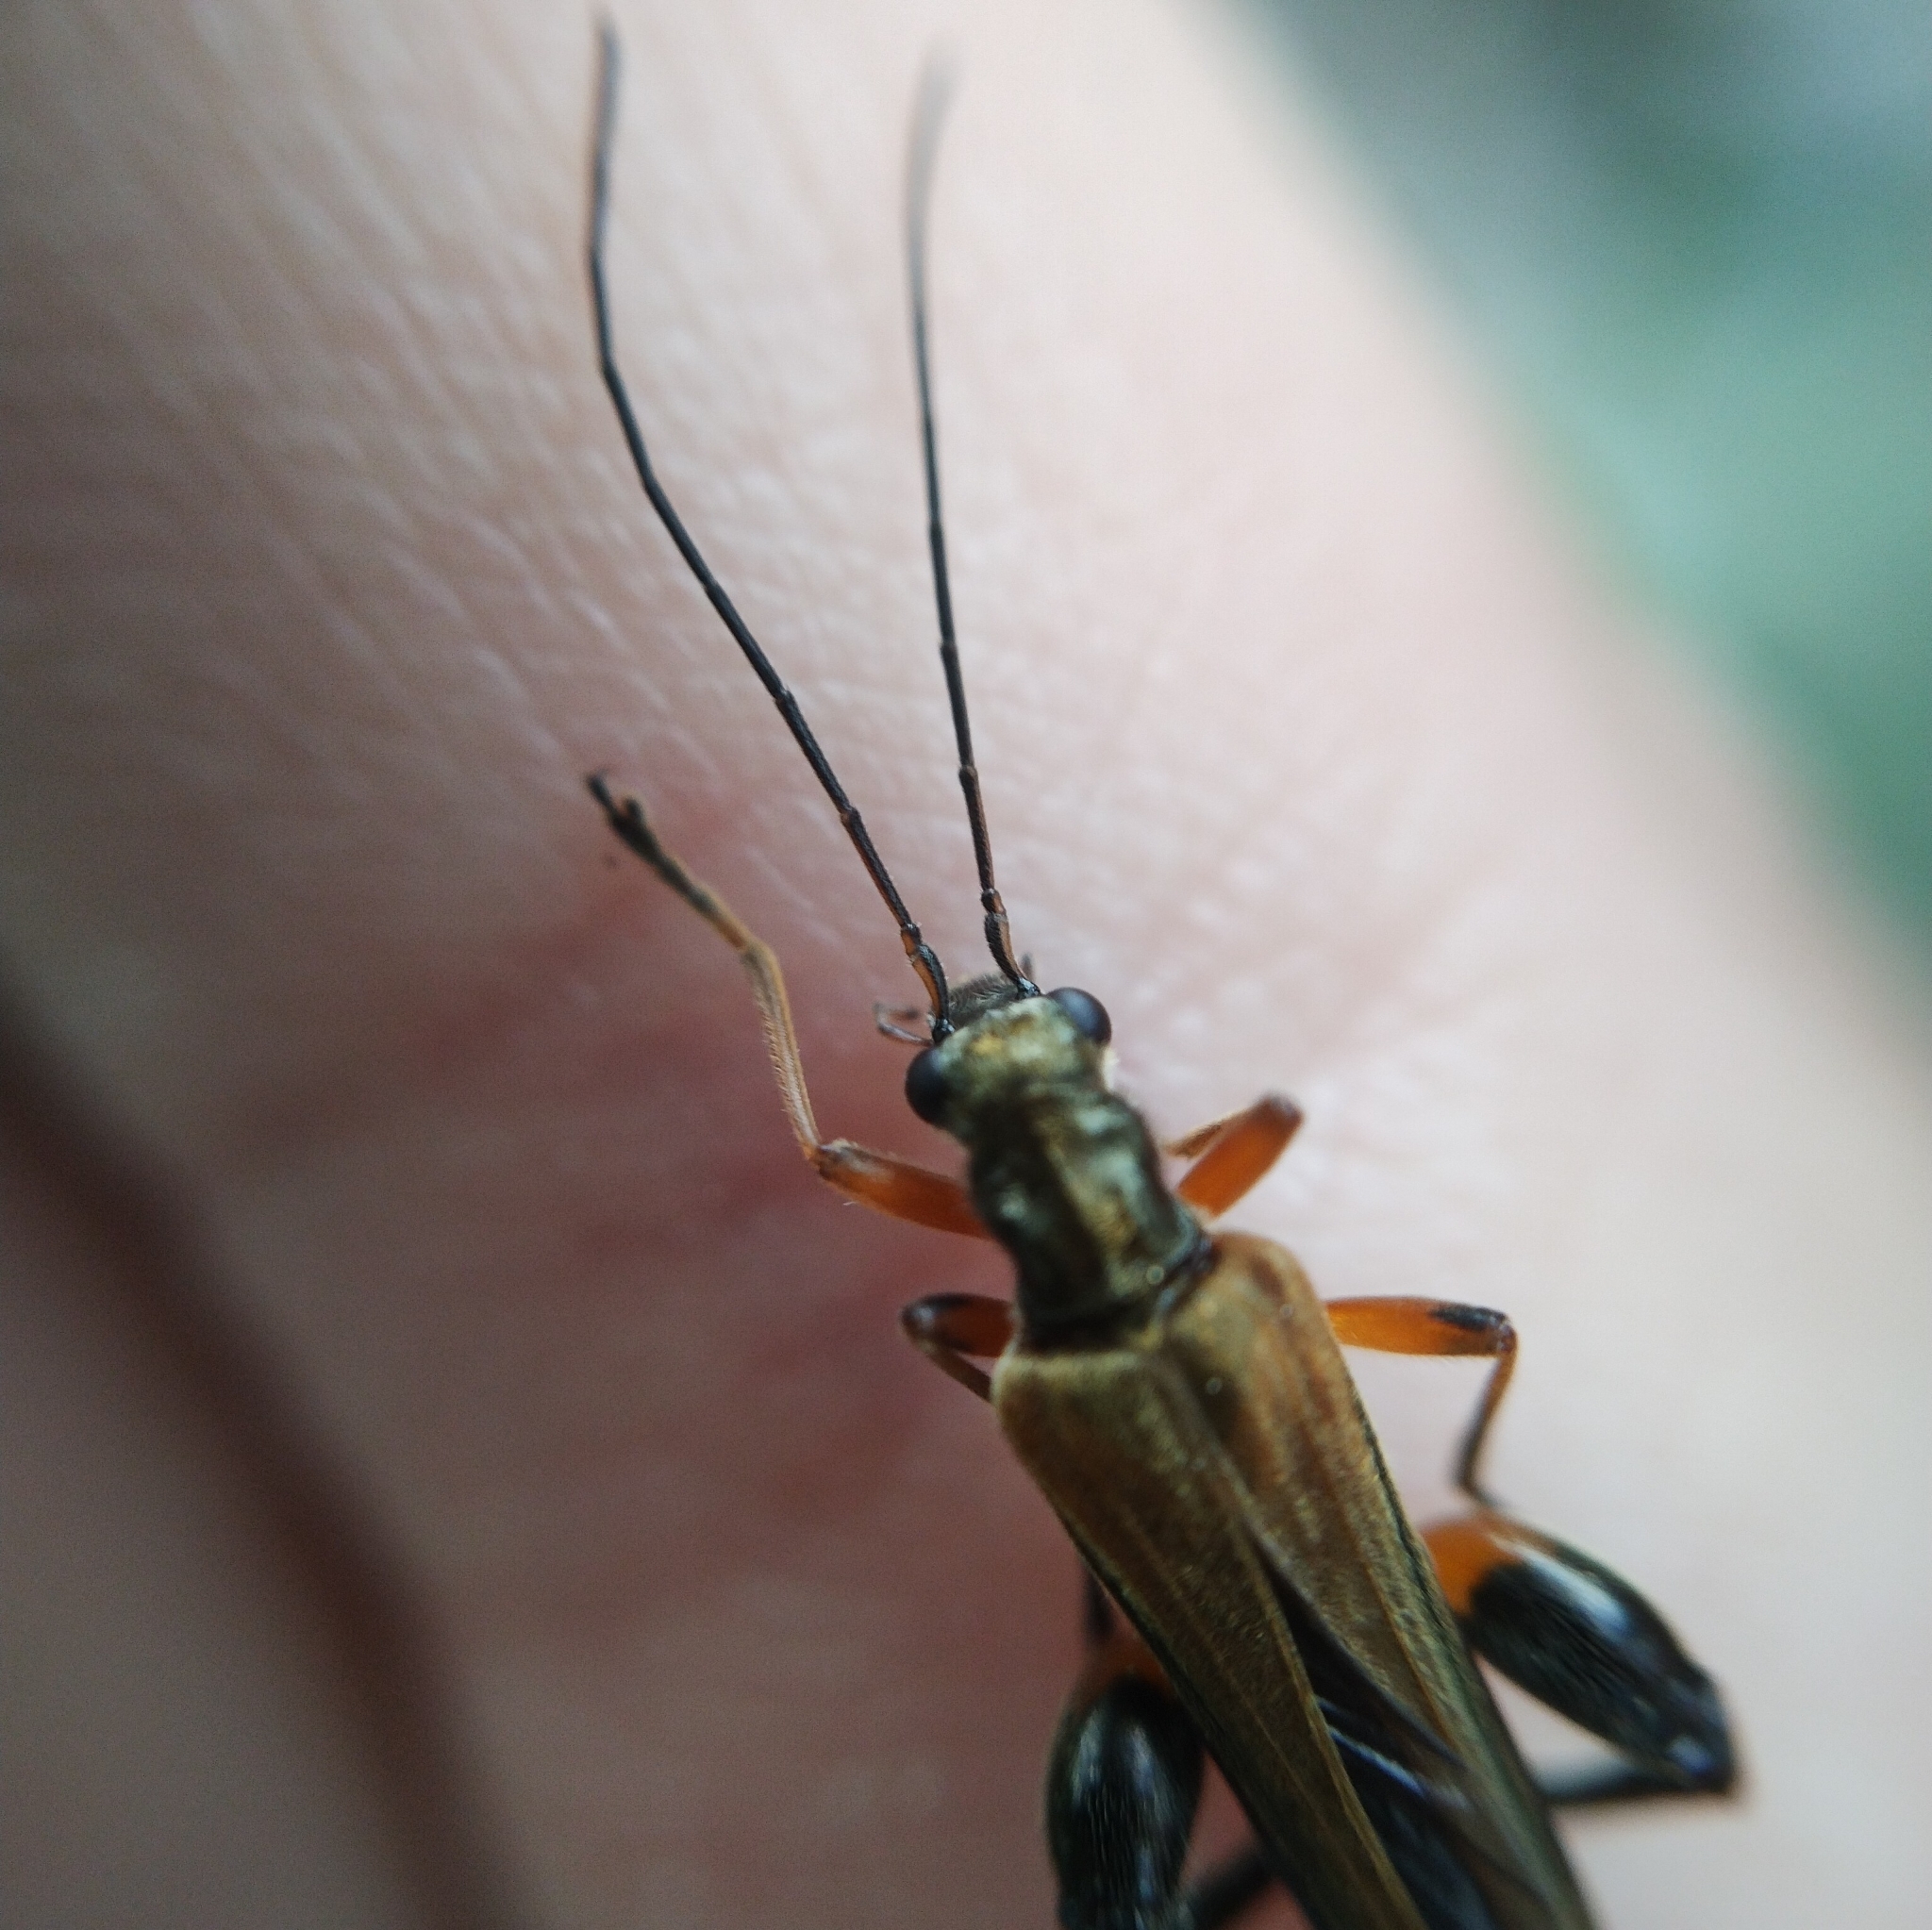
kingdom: Animalia
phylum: Arthropoda
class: Insecta
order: Coleoptera
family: Oedemeridae
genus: Oedemera
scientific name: Oedemera podagrariae
